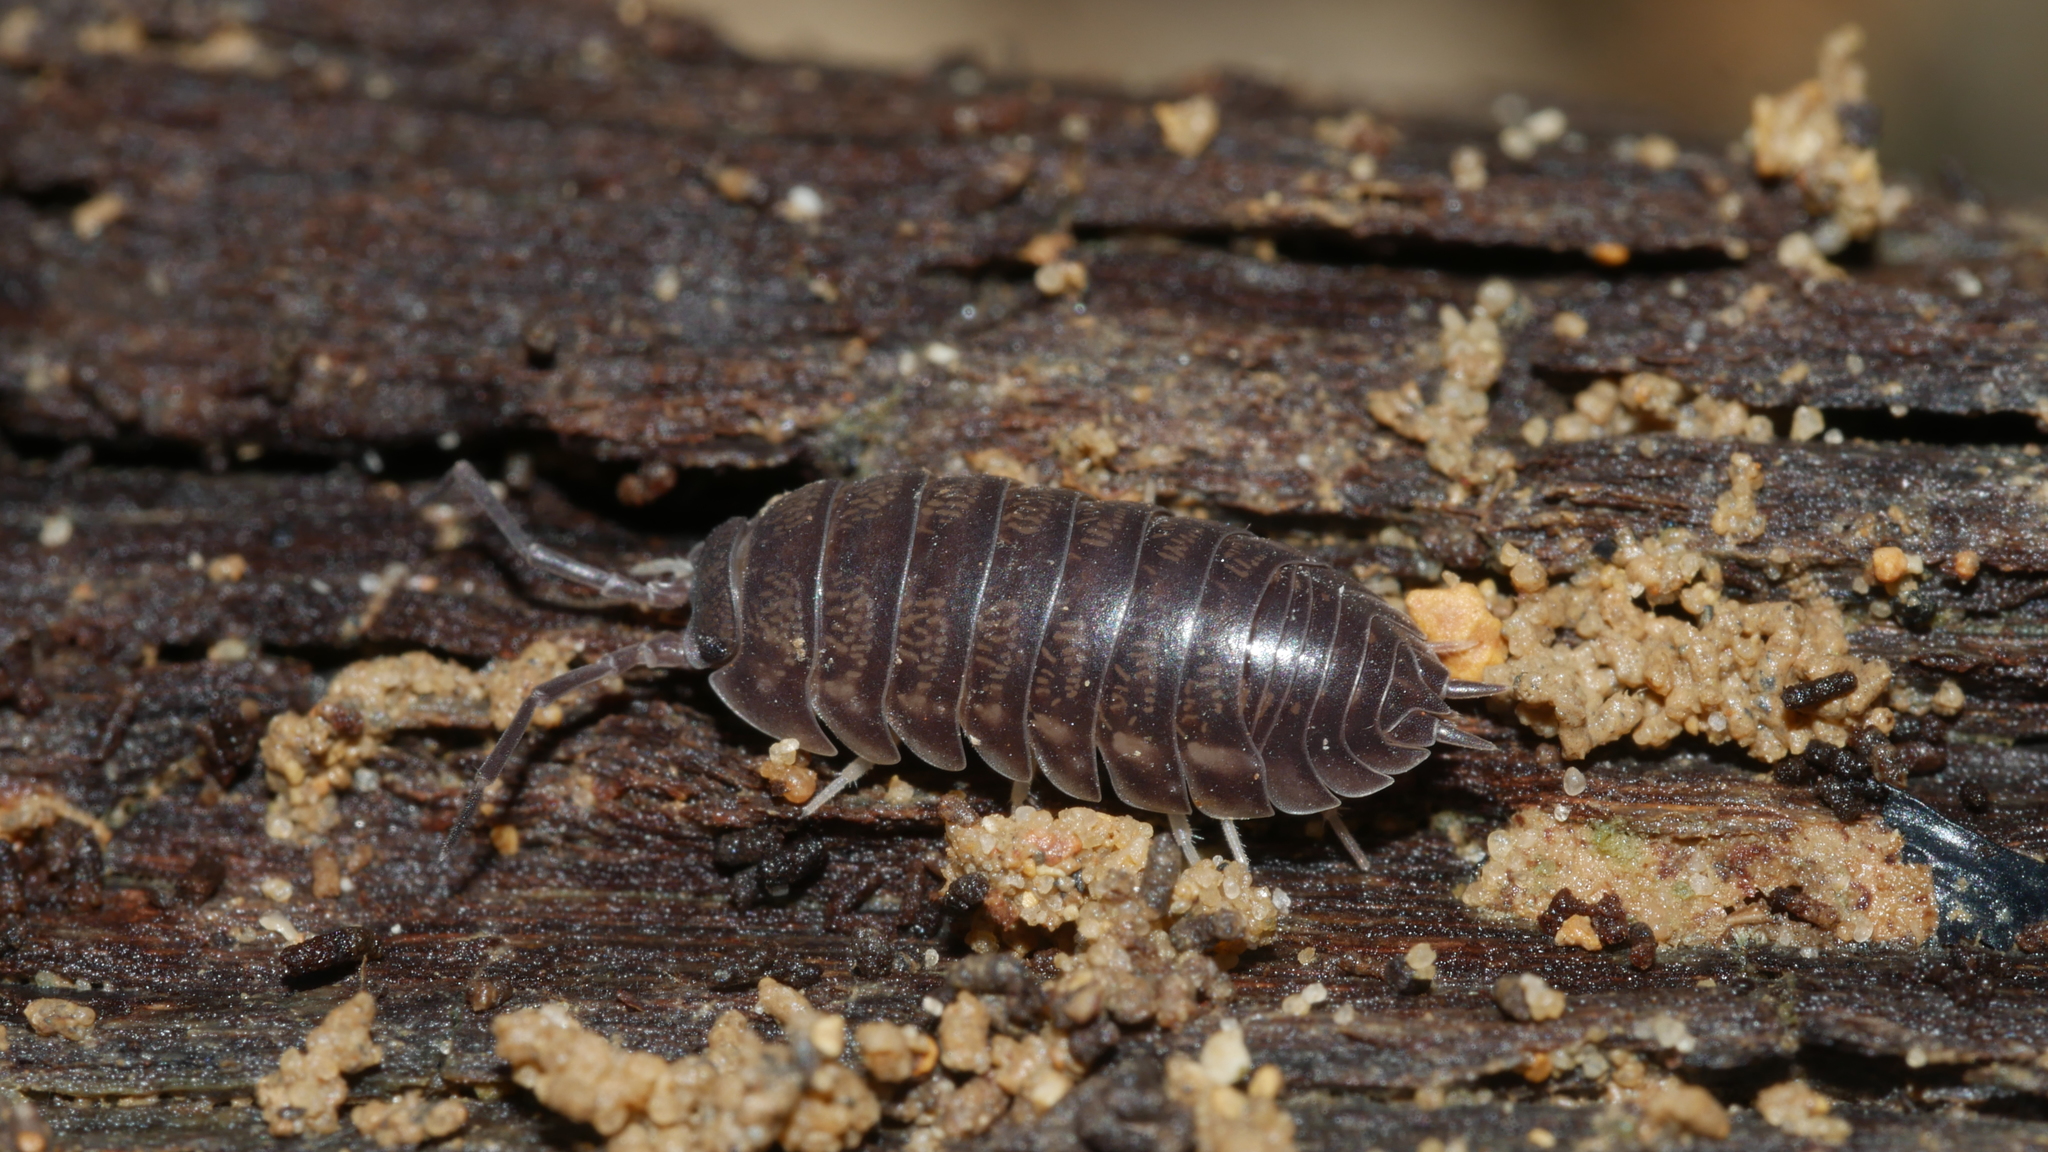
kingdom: Animalia
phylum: Arthropoda
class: Malacostraca
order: Isopoda
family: Cylisticidae
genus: Cylisticus
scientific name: Cylisticus convexus
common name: Curly woodlouse
